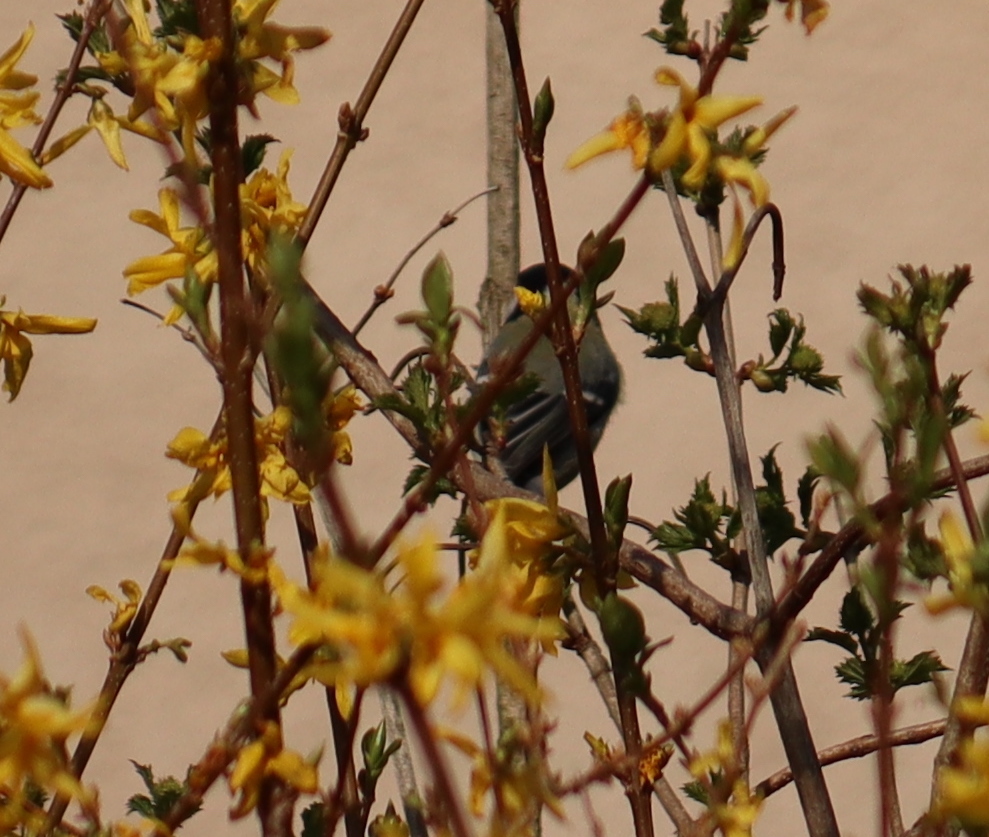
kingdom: Animalia
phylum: Chordata
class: Aves
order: Passeriformes
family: Paridae
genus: Parus
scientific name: Parus major
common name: Great tit
